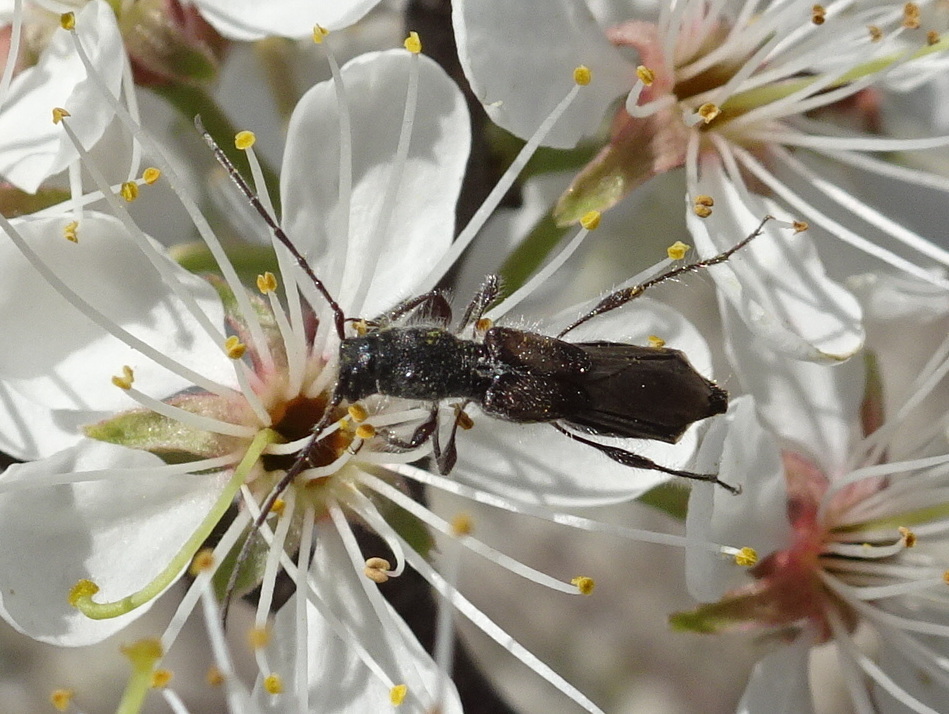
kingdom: Animalia
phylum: Arthropoda
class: Insecta
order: Coleoptera
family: Cerambycidae
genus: Molorchus
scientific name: Molorchus bimaculatus
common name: Bimaculate longhorn beetle
